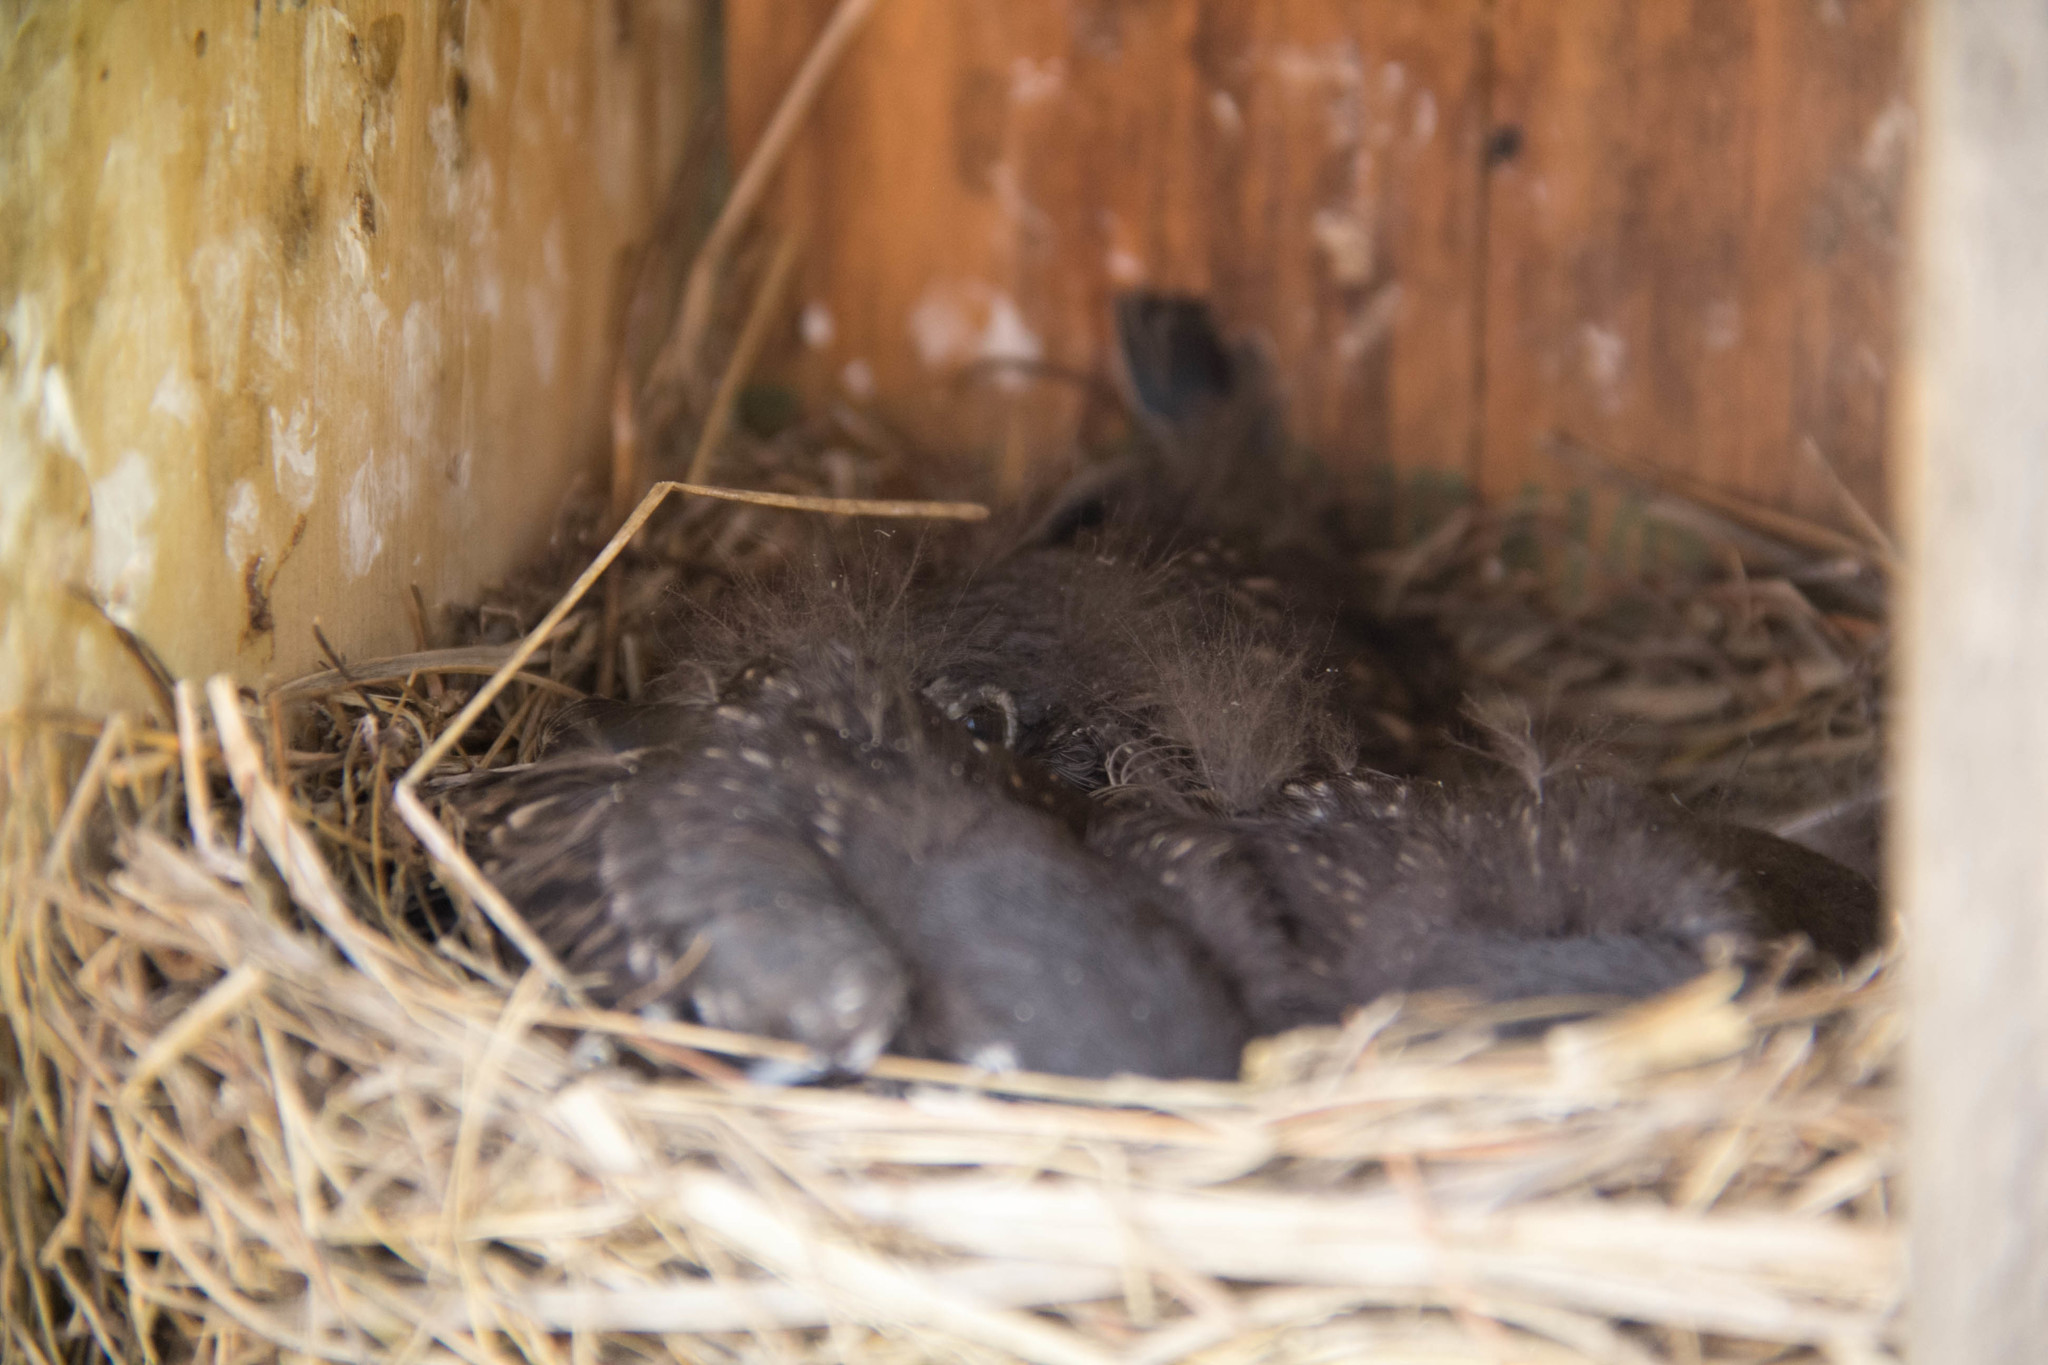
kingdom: Animalia
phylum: Chordata
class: Aves
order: Passeriformes
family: Turdidae
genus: Sialia
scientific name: Sialia sialis
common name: Eastern bluebird
